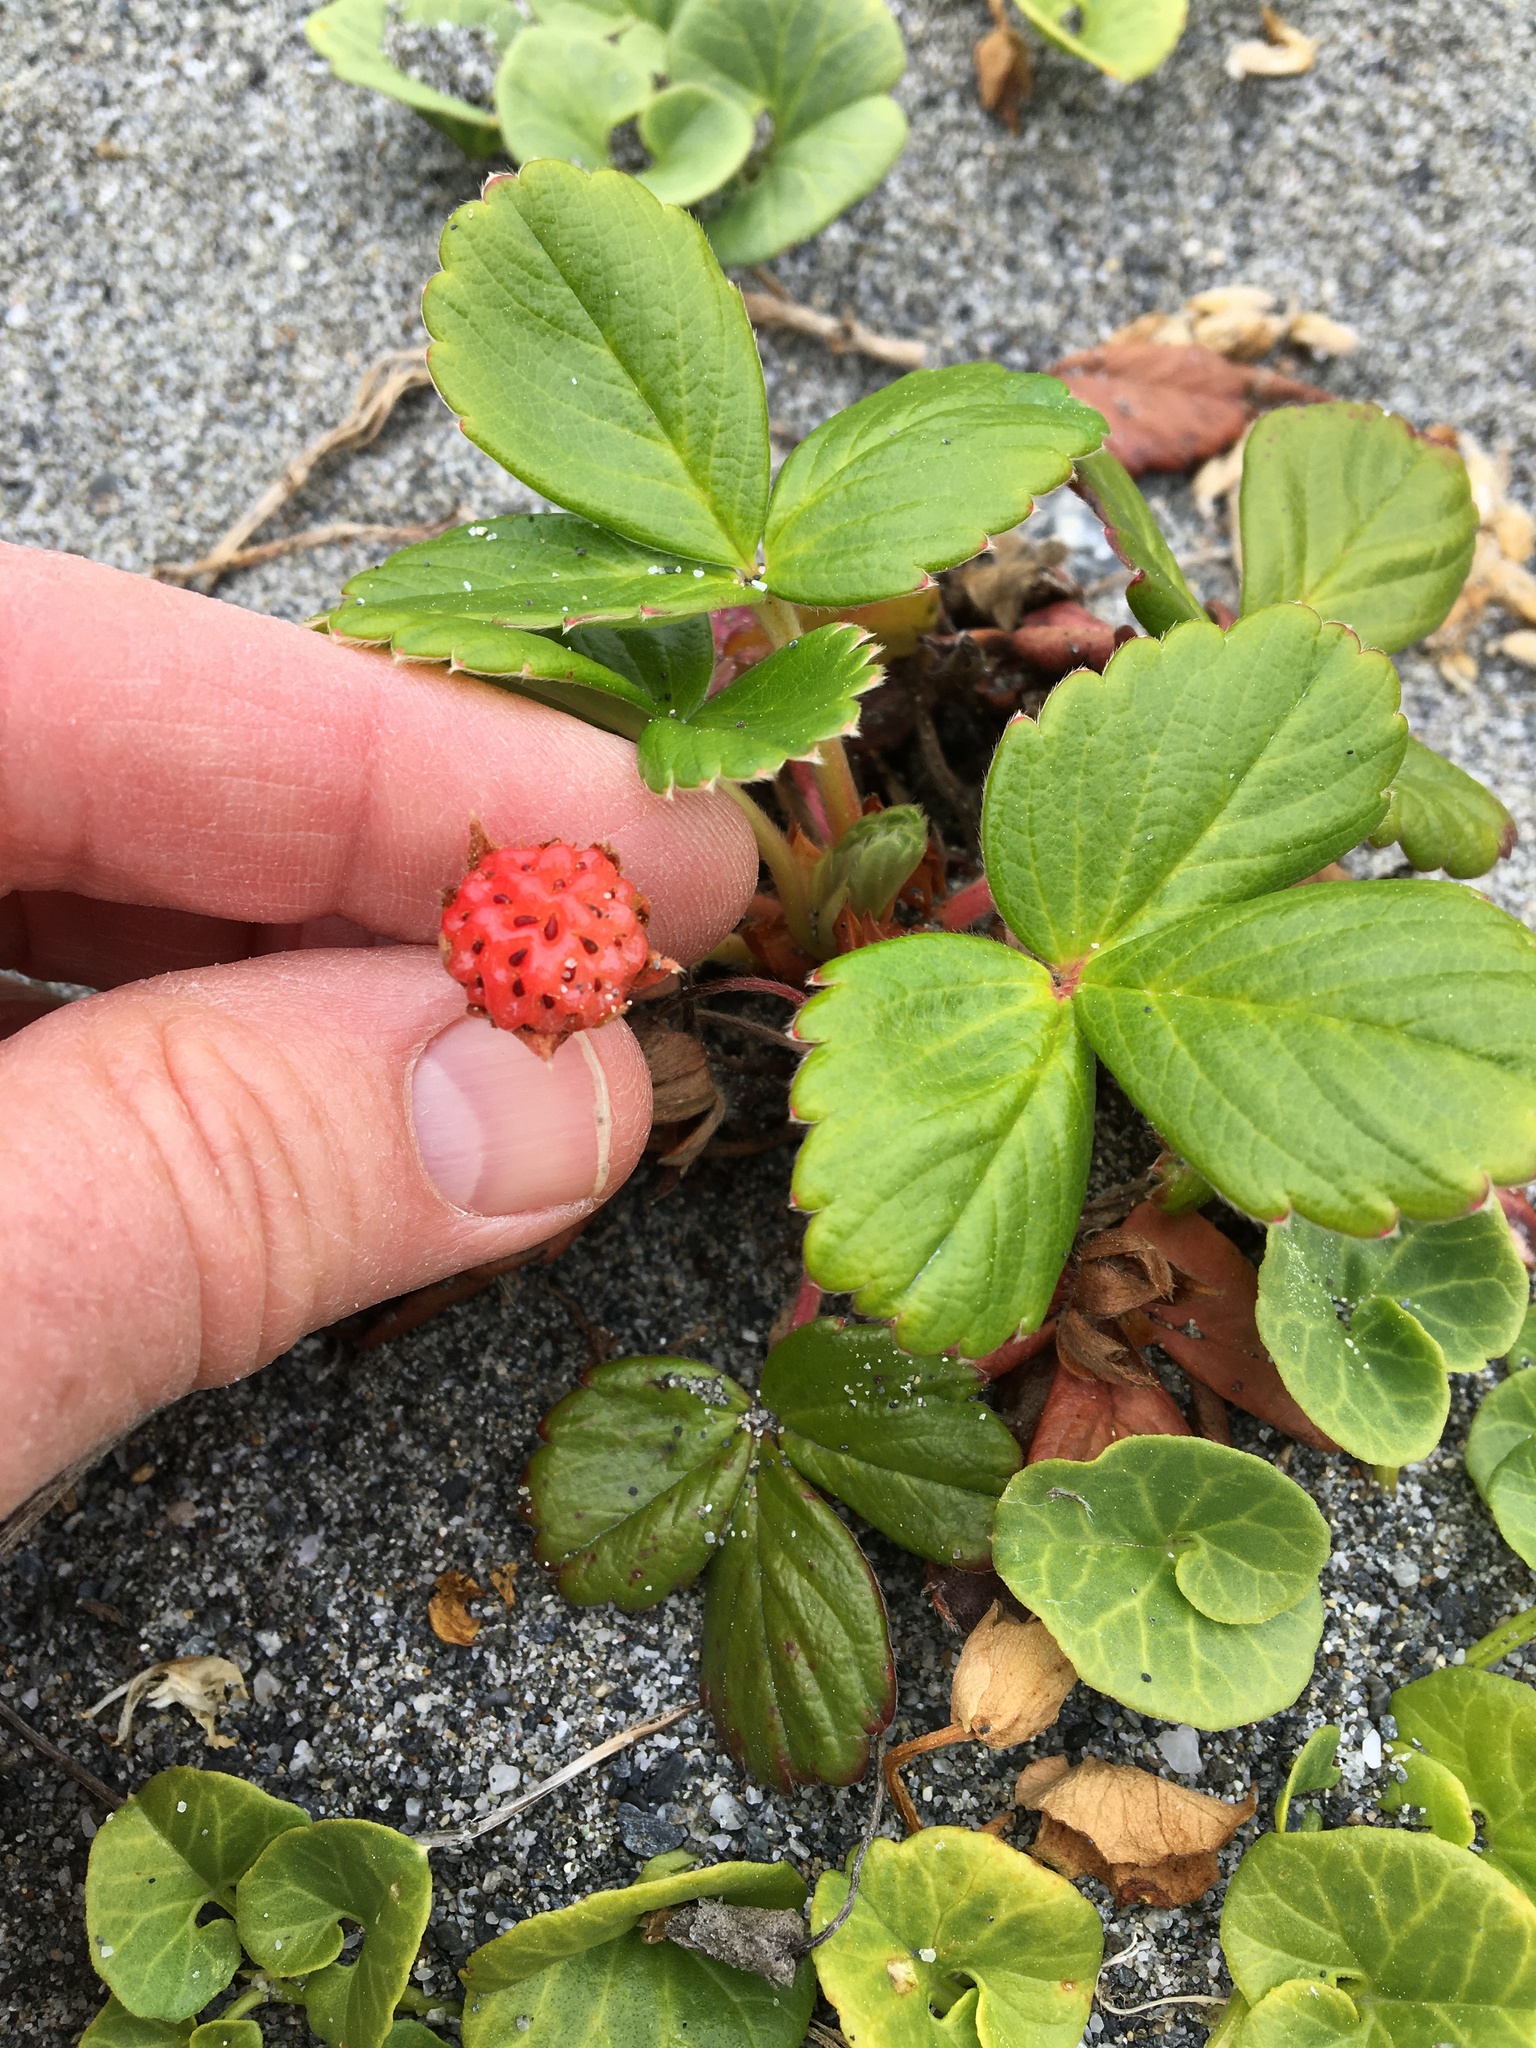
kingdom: Plantae
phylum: Tracheophyta
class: Magnoliopsida
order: Rosales
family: Rosaceae
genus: Fragaria
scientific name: Fragaria chiloensis
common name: Beach strawberry
